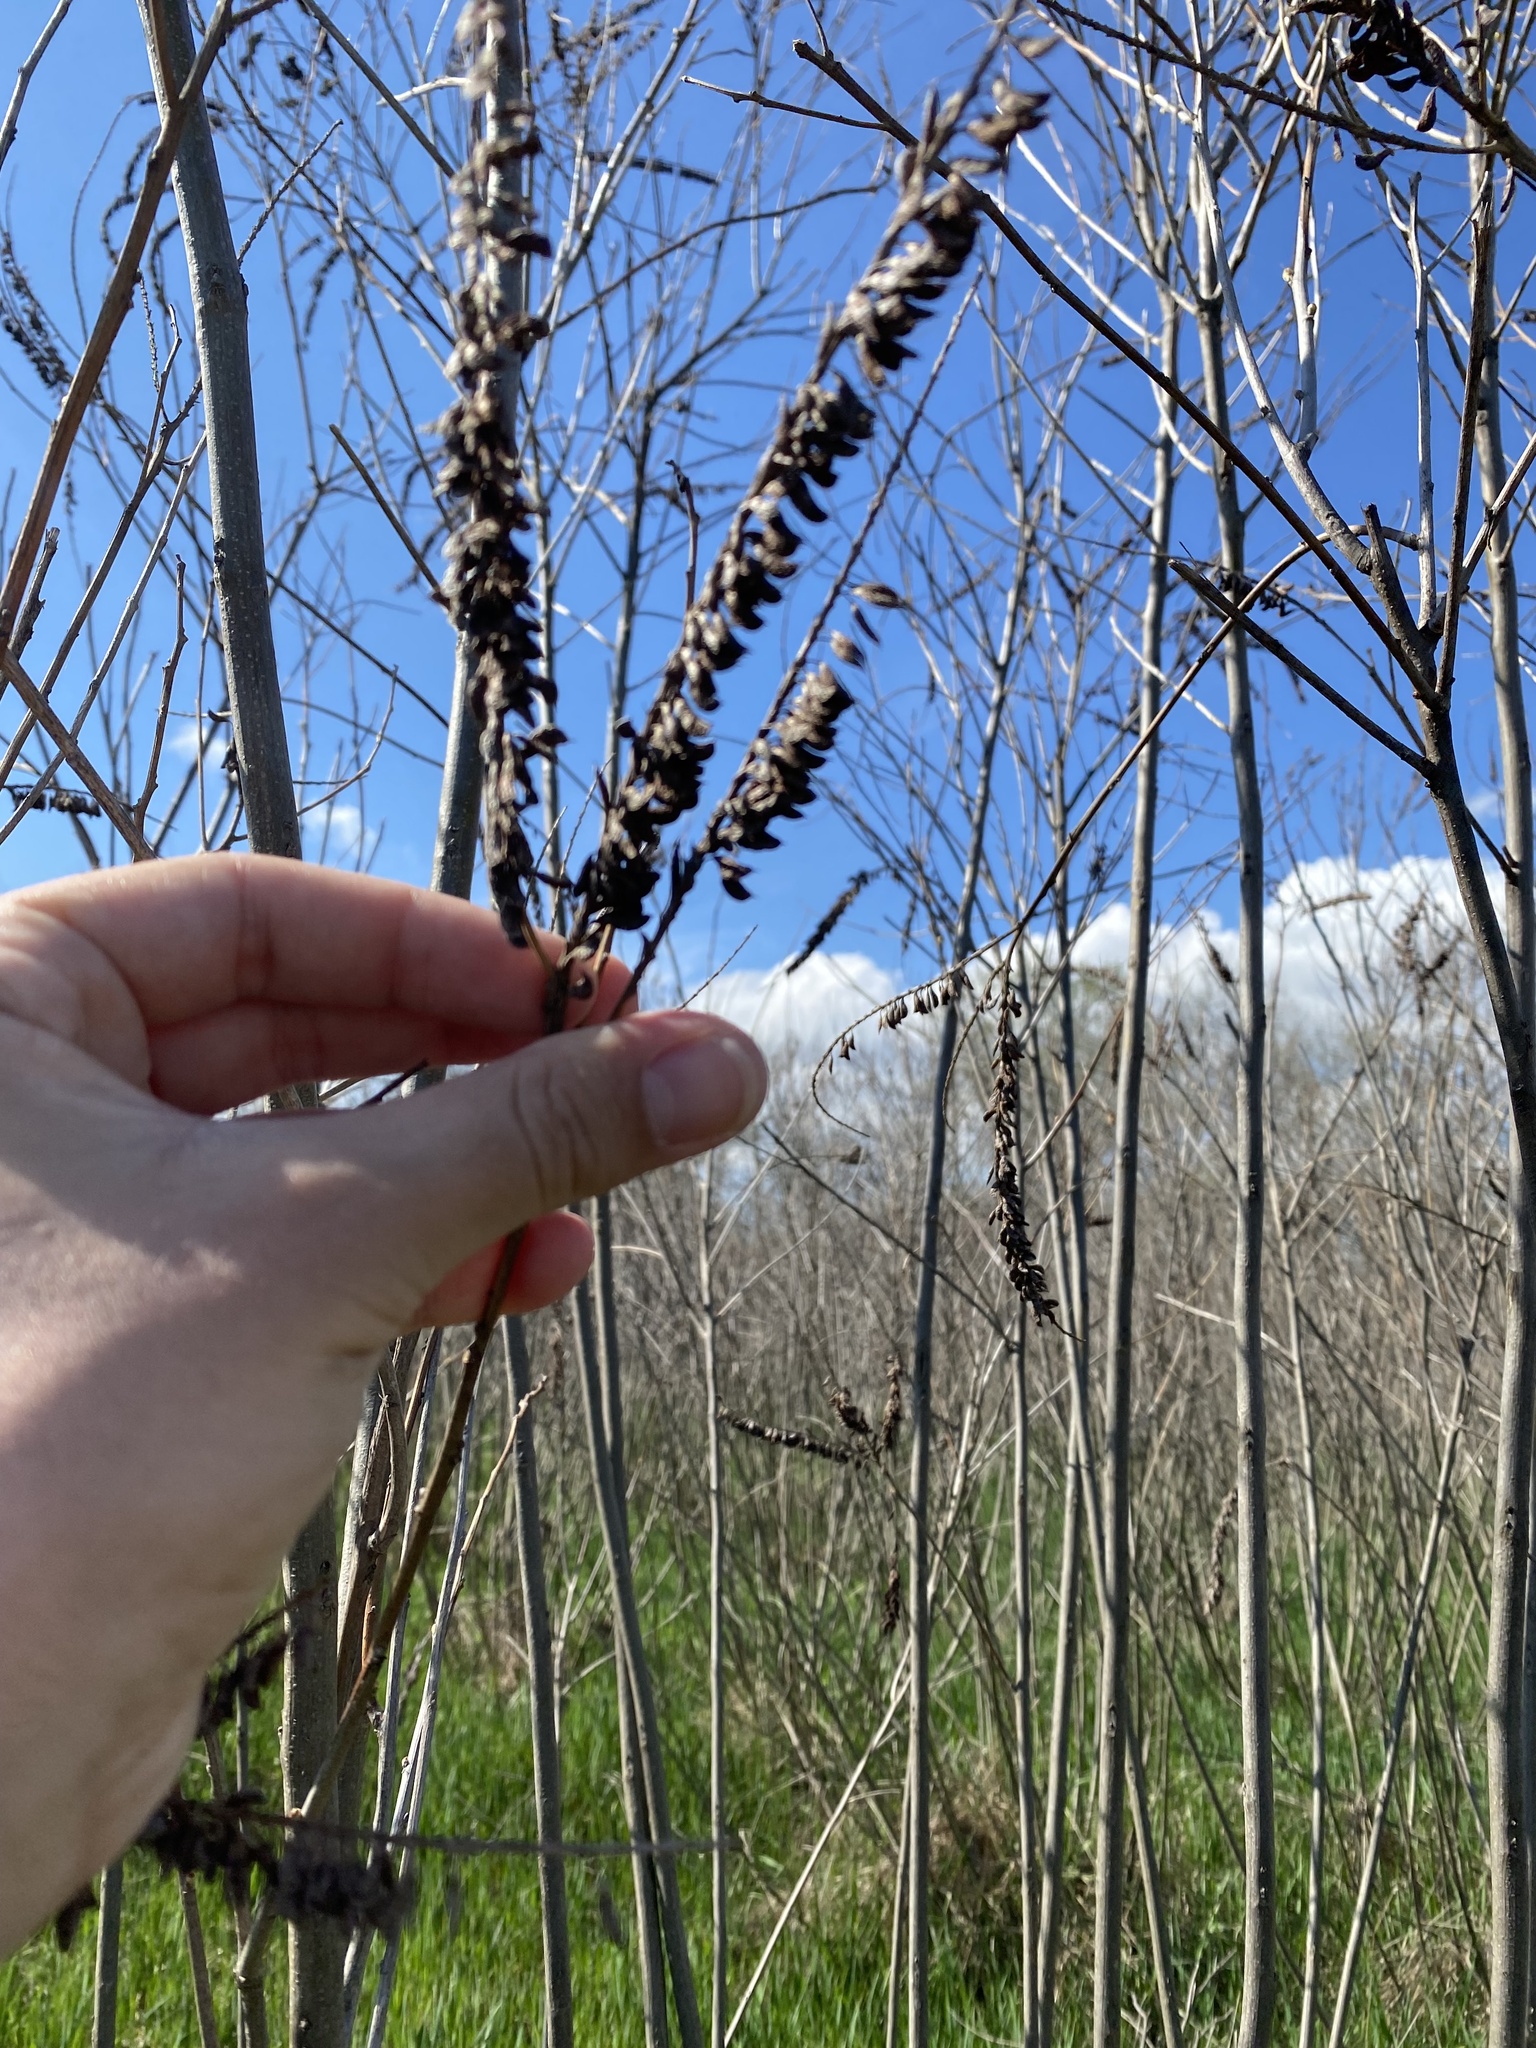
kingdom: Plantae
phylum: Tracheophyta
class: Magnoliopsida
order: Fabales
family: Fabaceae
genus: Amorpha
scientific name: Amorpha fruticosa
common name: False indigo
